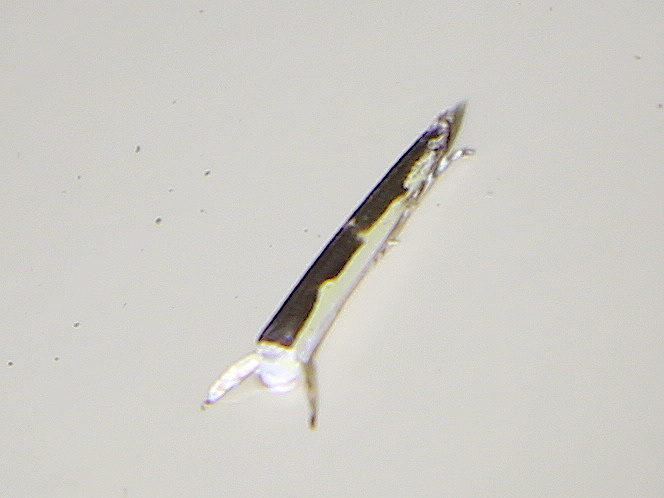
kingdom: Animalia
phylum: Arthropoda
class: Insecta
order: Lepidoptera
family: Roeslerstammiidae
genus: Vanicela
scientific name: Vanicela disjunctella
